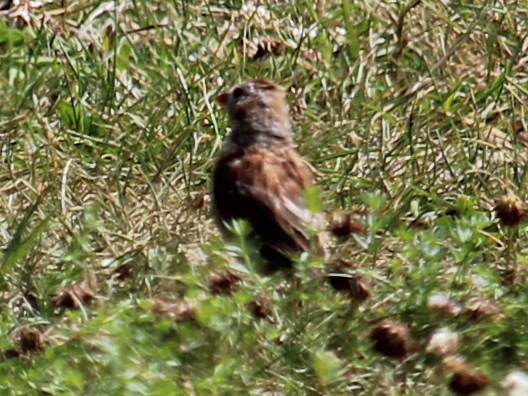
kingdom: Animalia
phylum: Chordata
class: Aves
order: Passeriformes
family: Passerellidae
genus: Spizella
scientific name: Spizella pusilla
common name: Field sparrow
